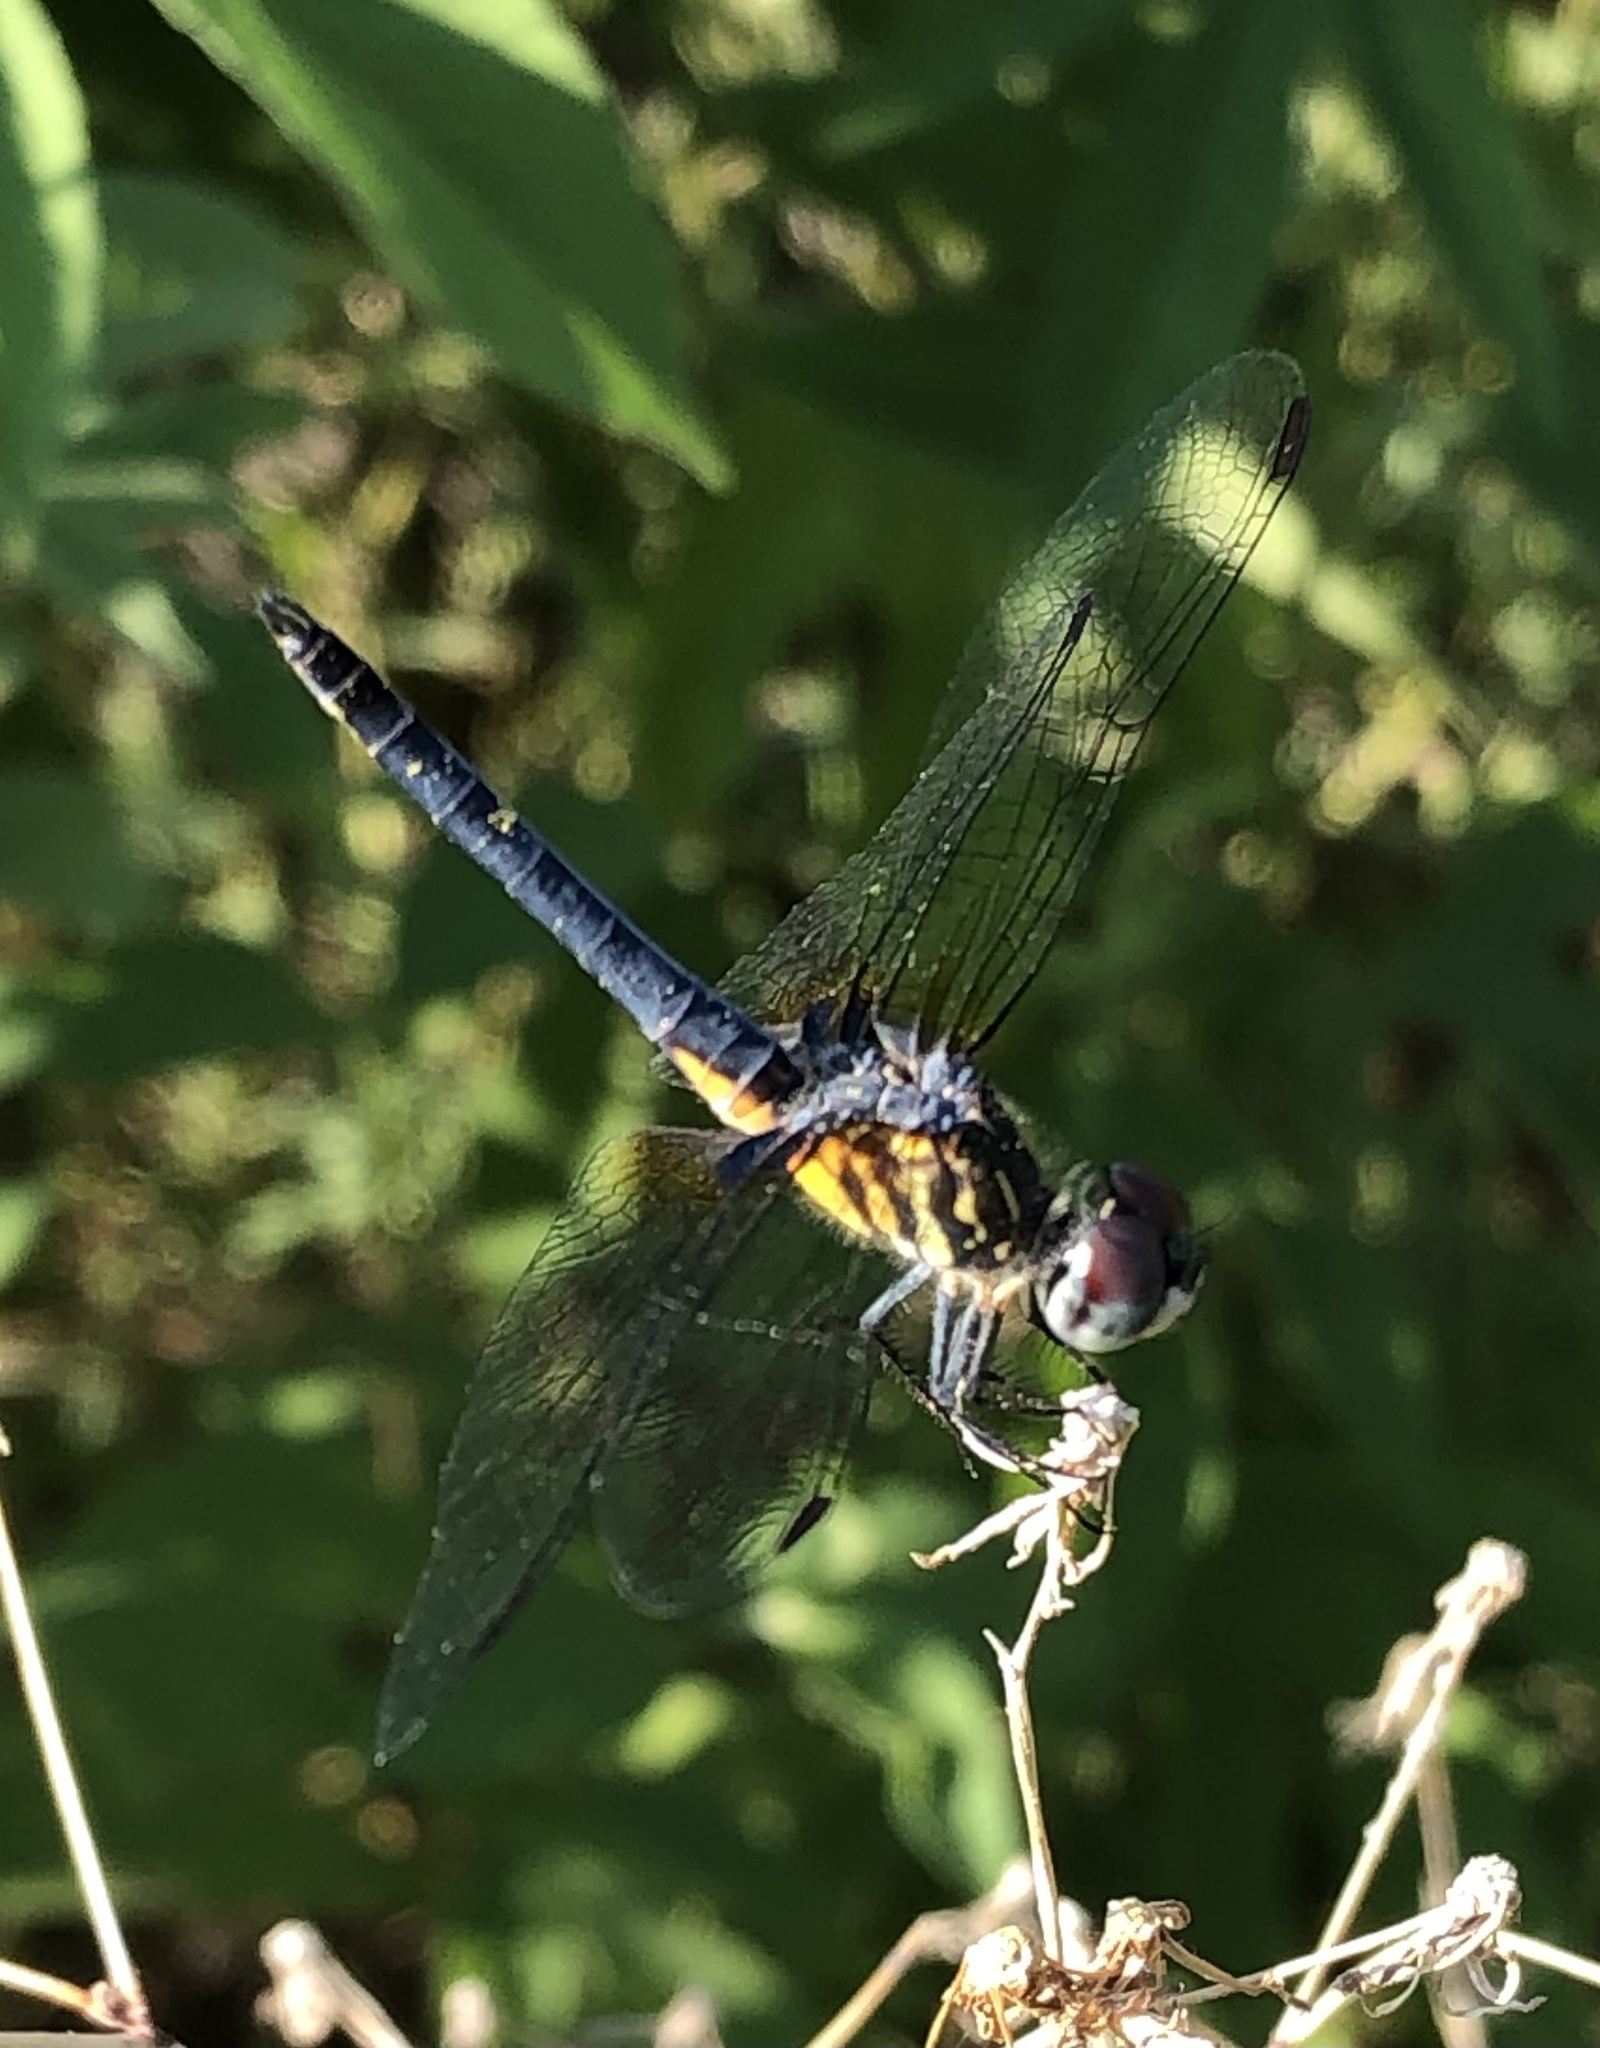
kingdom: Animalia
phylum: Arthropoda
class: Insecta
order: Odonata
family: Libellulidae
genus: Pachydiplax
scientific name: Pachydiplax longipennis
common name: Blue dasher
